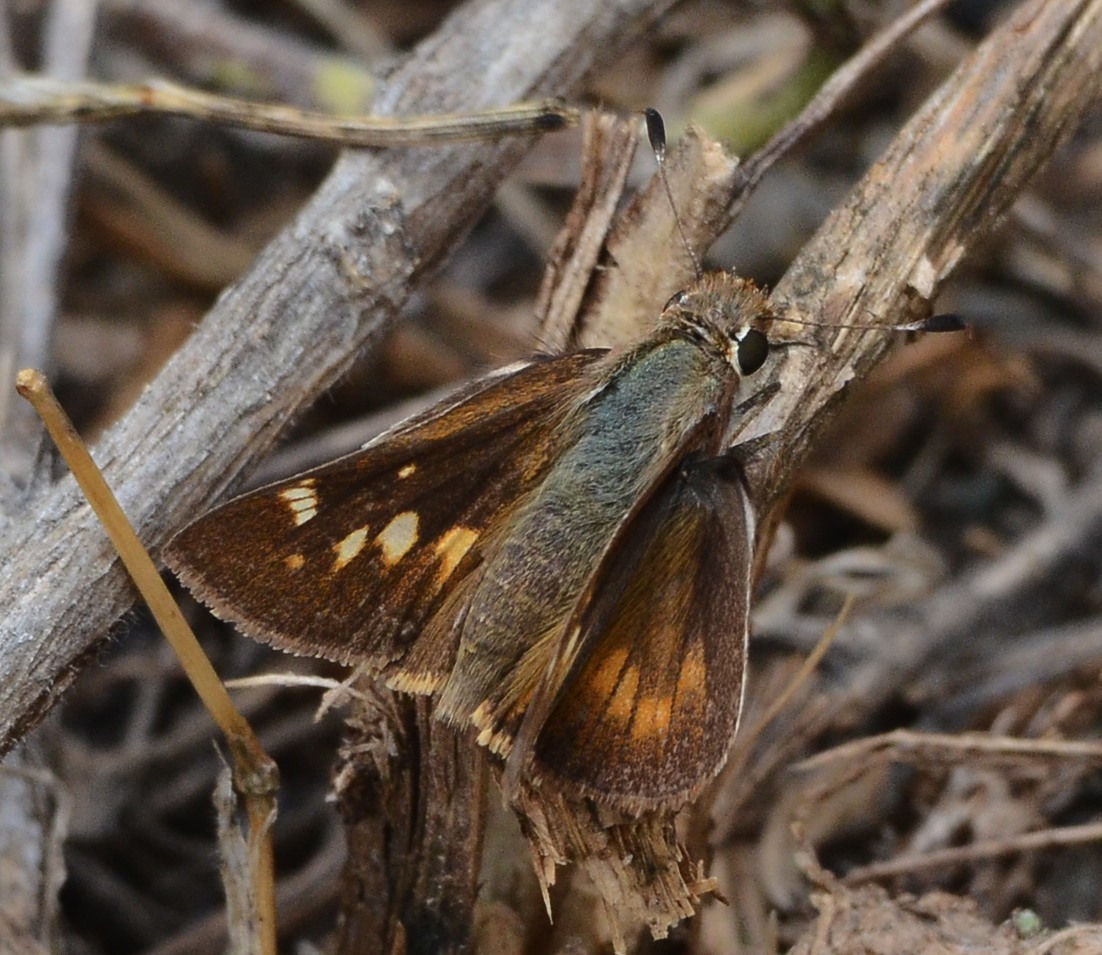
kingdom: Animalia
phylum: Arthropoda
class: Insecta
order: Lepidoptera
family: Hesperiidae
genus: Lon
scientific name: Lon melane
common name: Umber skipper
